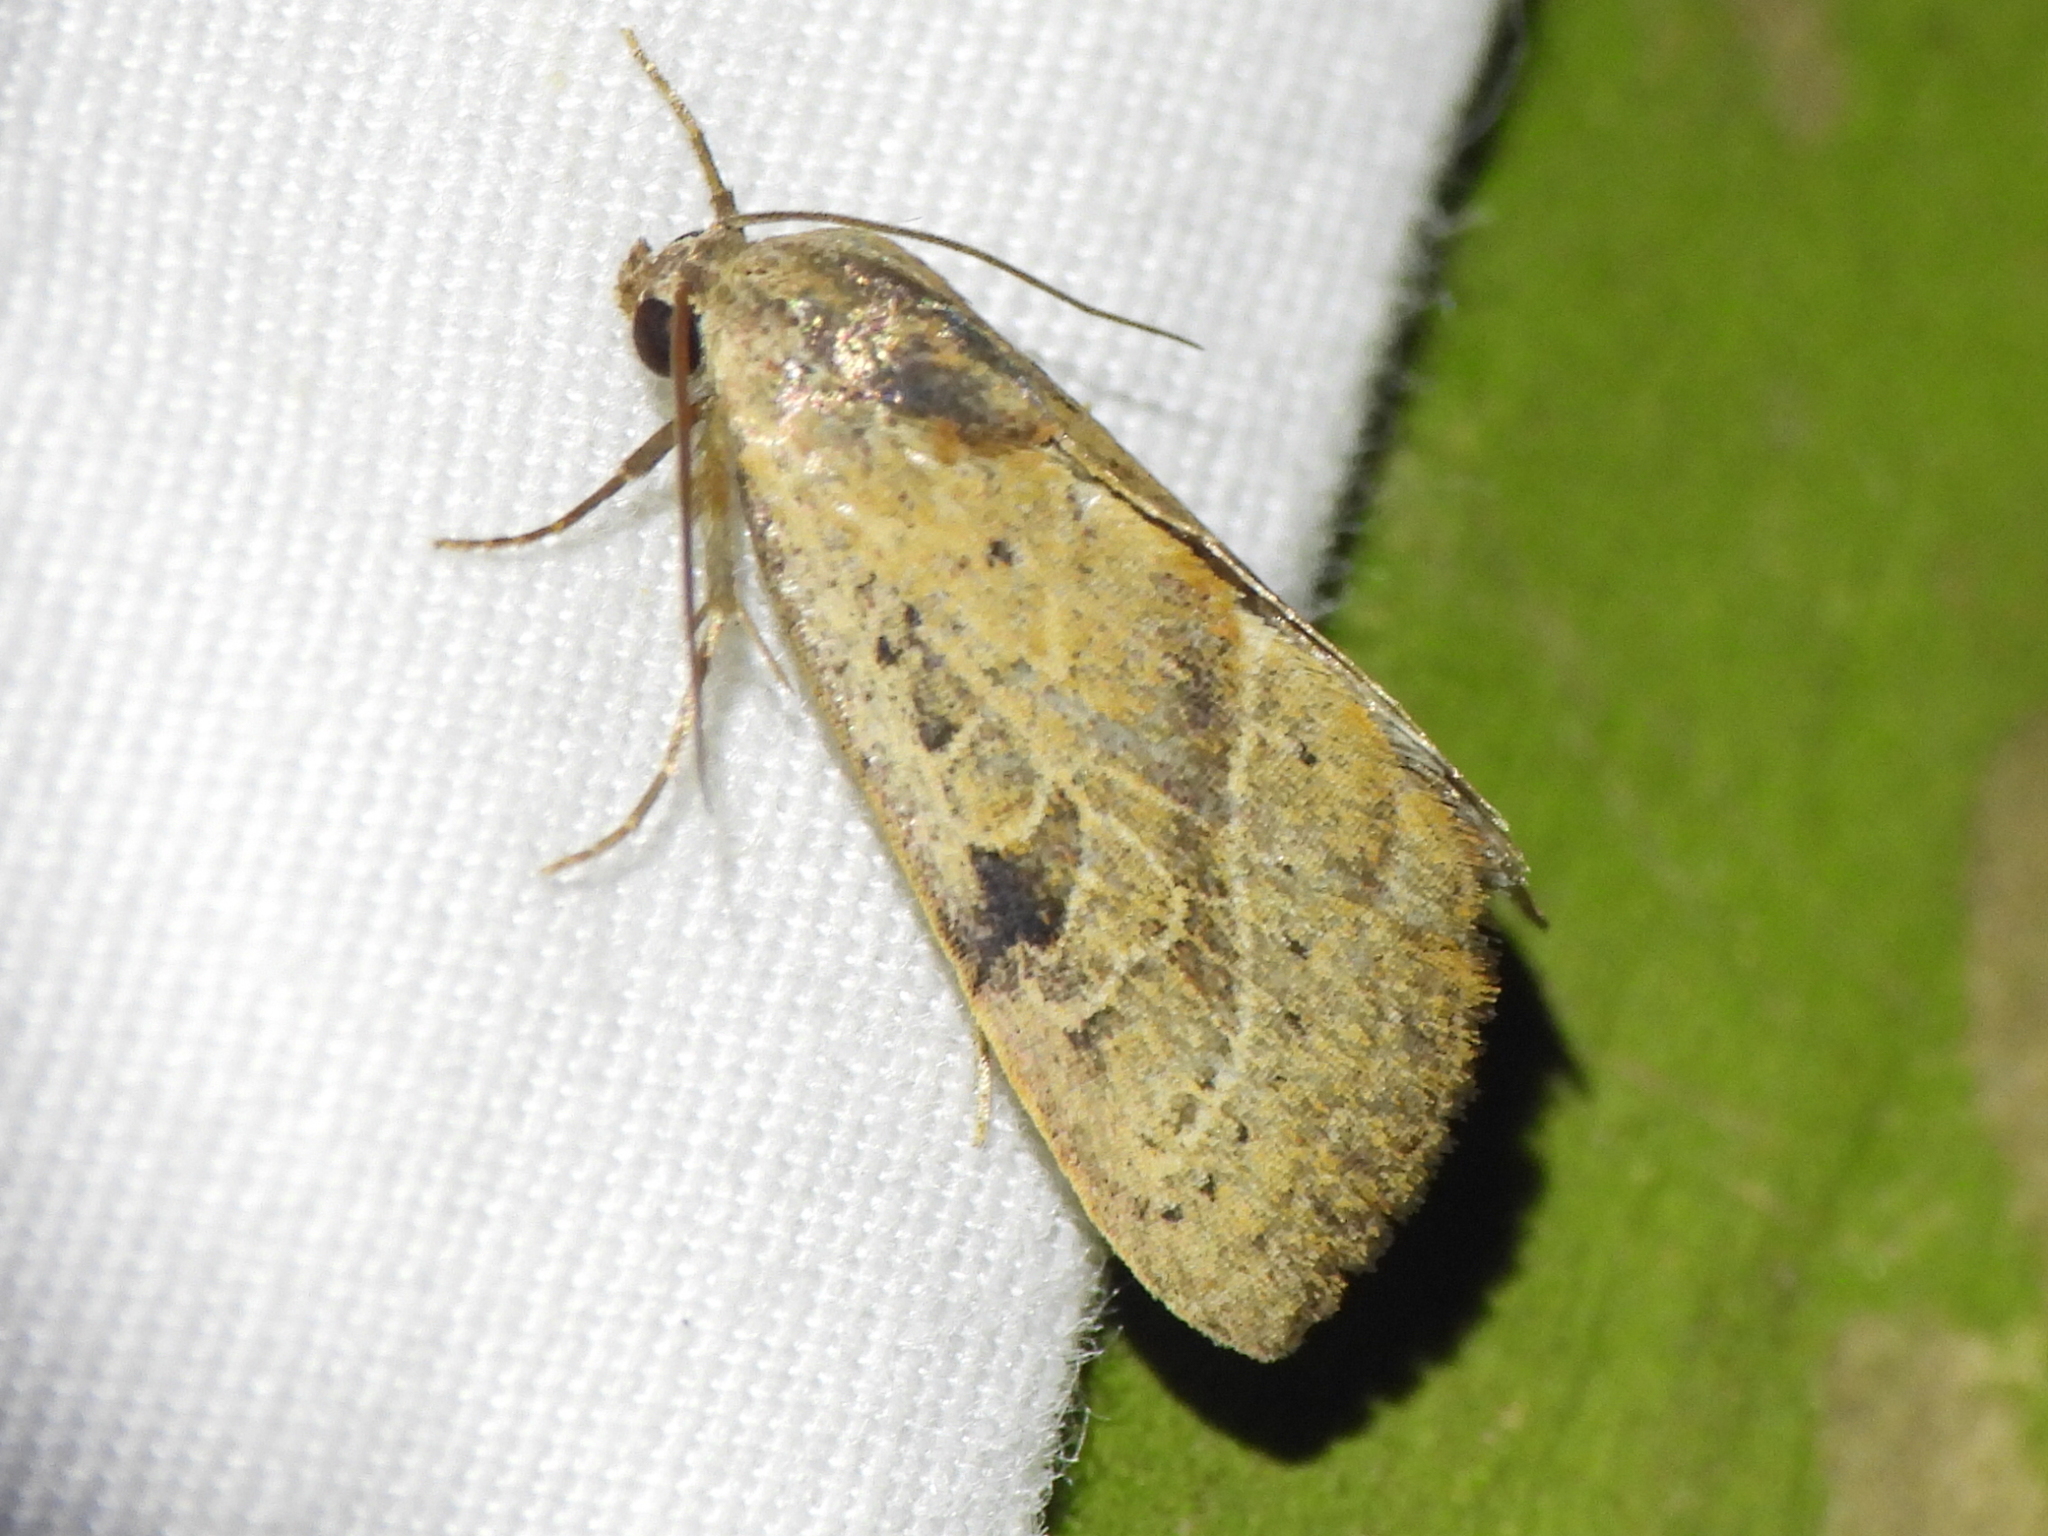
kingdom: Animalia
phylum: Arthropoda
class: Insecta
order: Lepidoptera
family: Noctuidae
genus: Galgula
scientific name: Galgula partita
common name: Wedgeling
